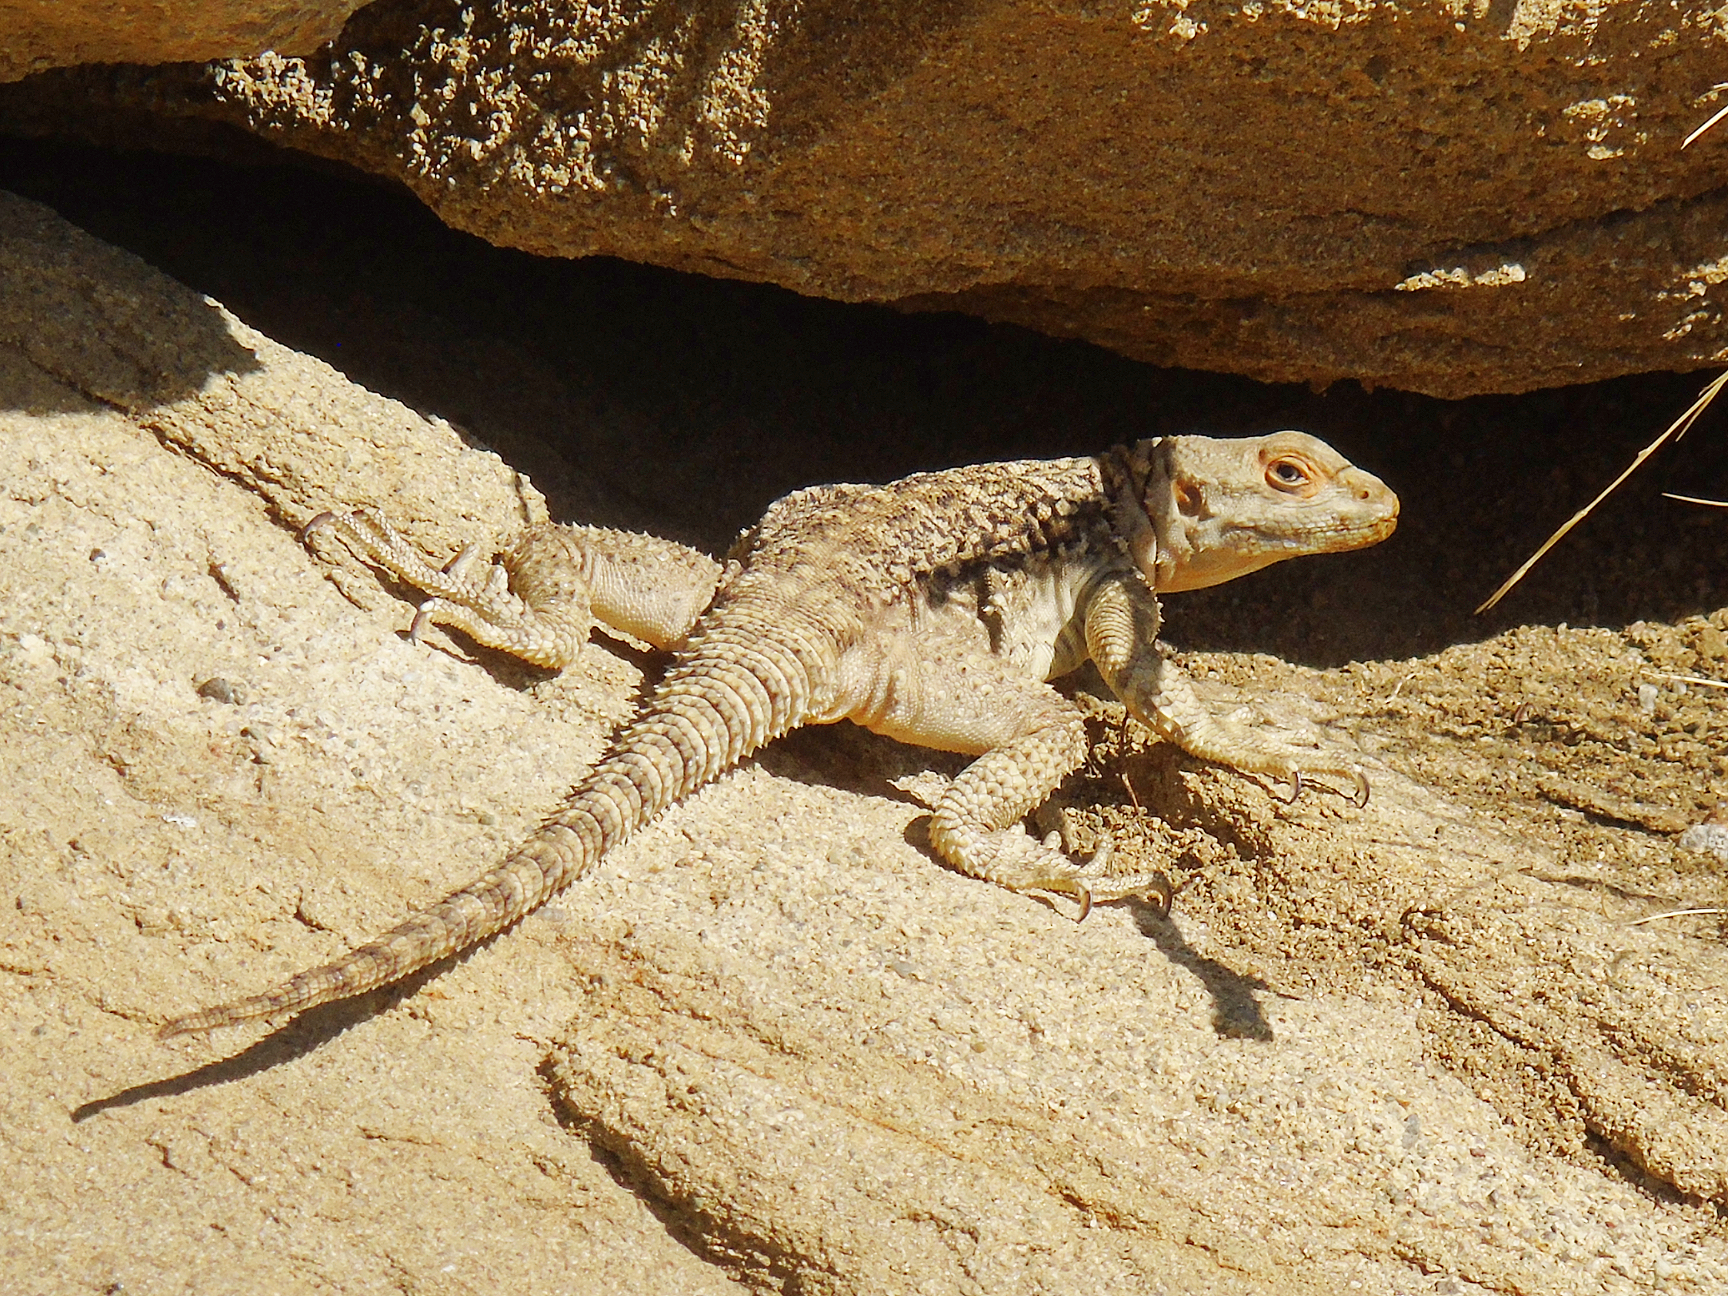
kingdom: Animalia
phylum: Chordata
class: Squamata
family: Agamidae
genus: Paralaudakia
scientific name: Paralaudakia caucasia
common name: Caucasian agama
